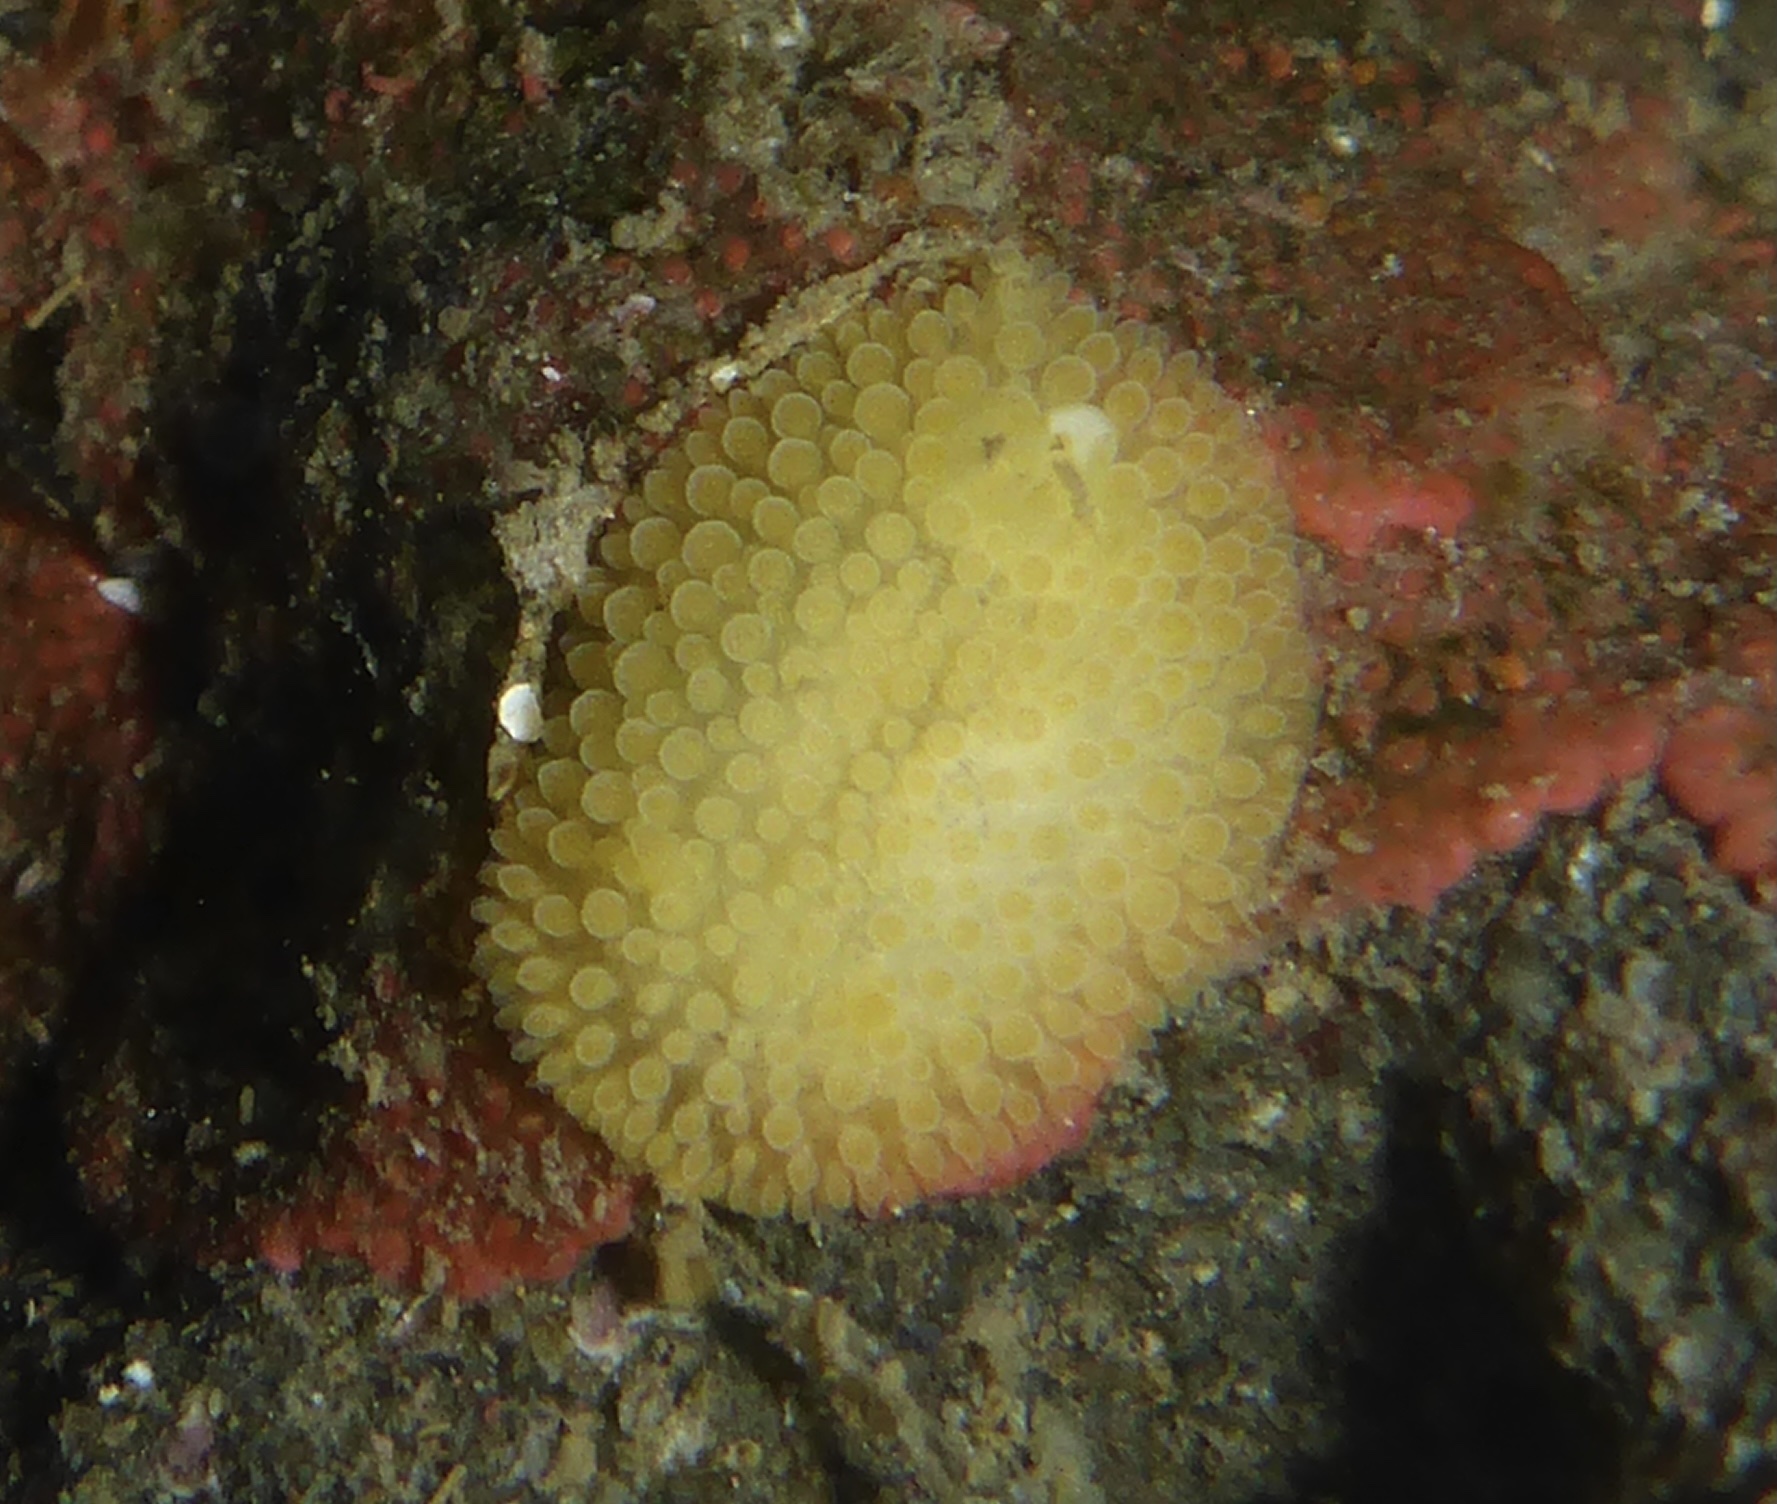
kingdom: Animalia
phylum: Mollusca
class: Gastropoda
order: Nudibranchia
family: Onchidorididae
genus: Atalodoris
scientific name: Atalodoris jannae
